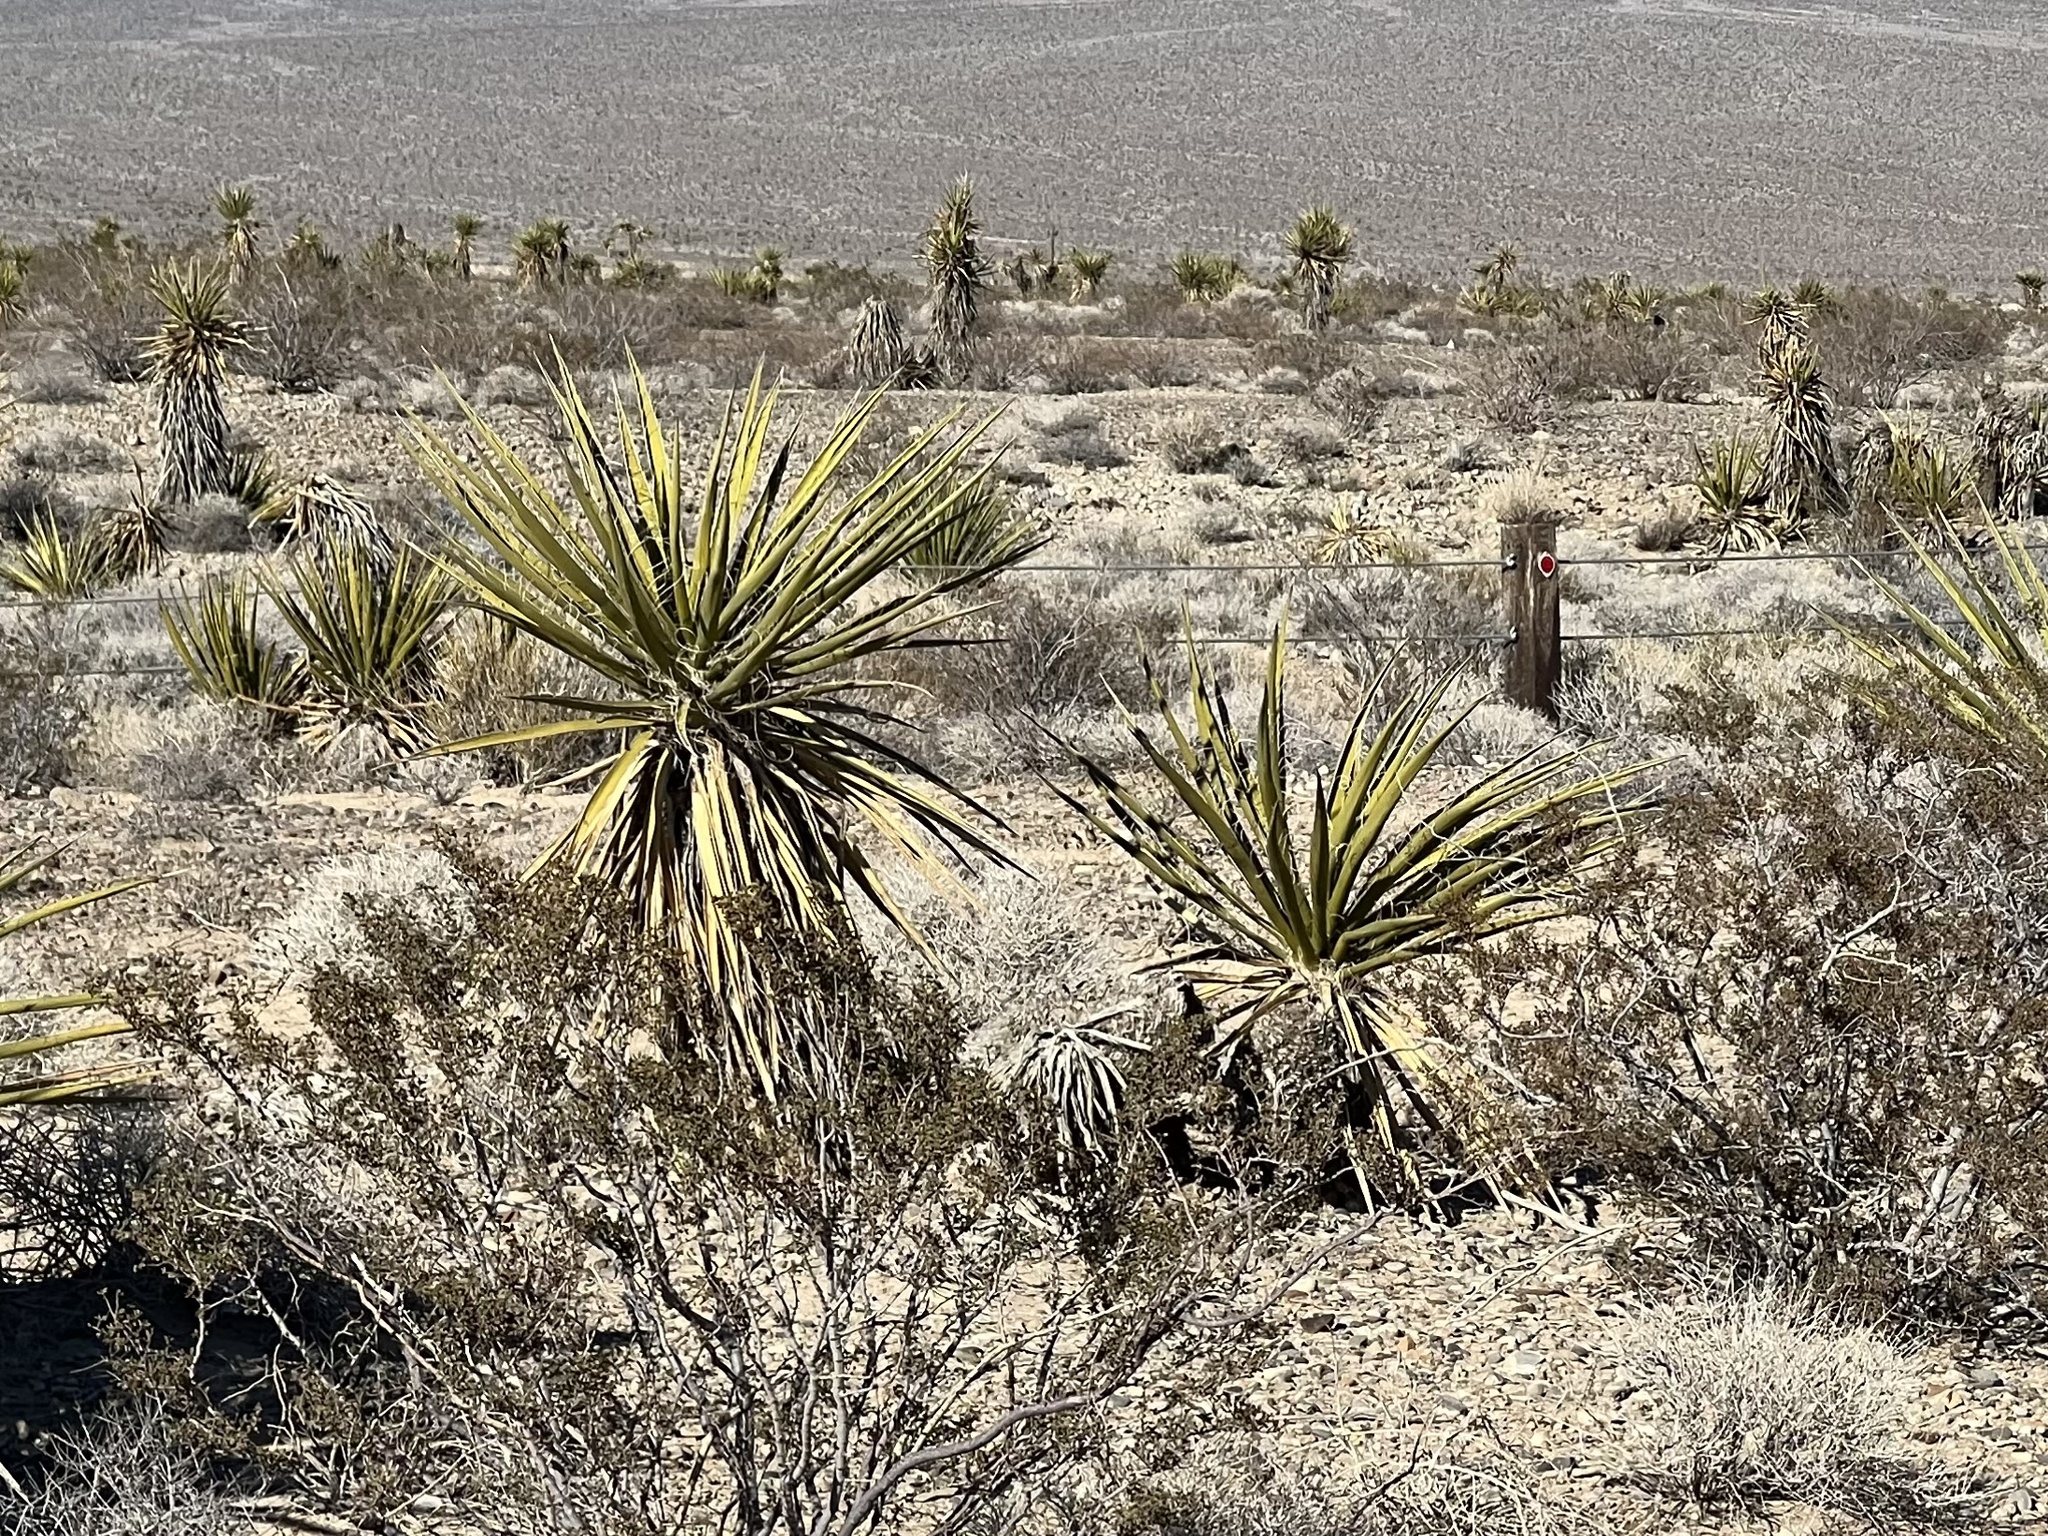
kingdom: Plantae
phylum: Tracheophyta
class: Liliopsida
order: Asparagales
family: Asparagaceae
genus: Yucca
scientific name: Yucca schidigera
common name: Mojave yucca
